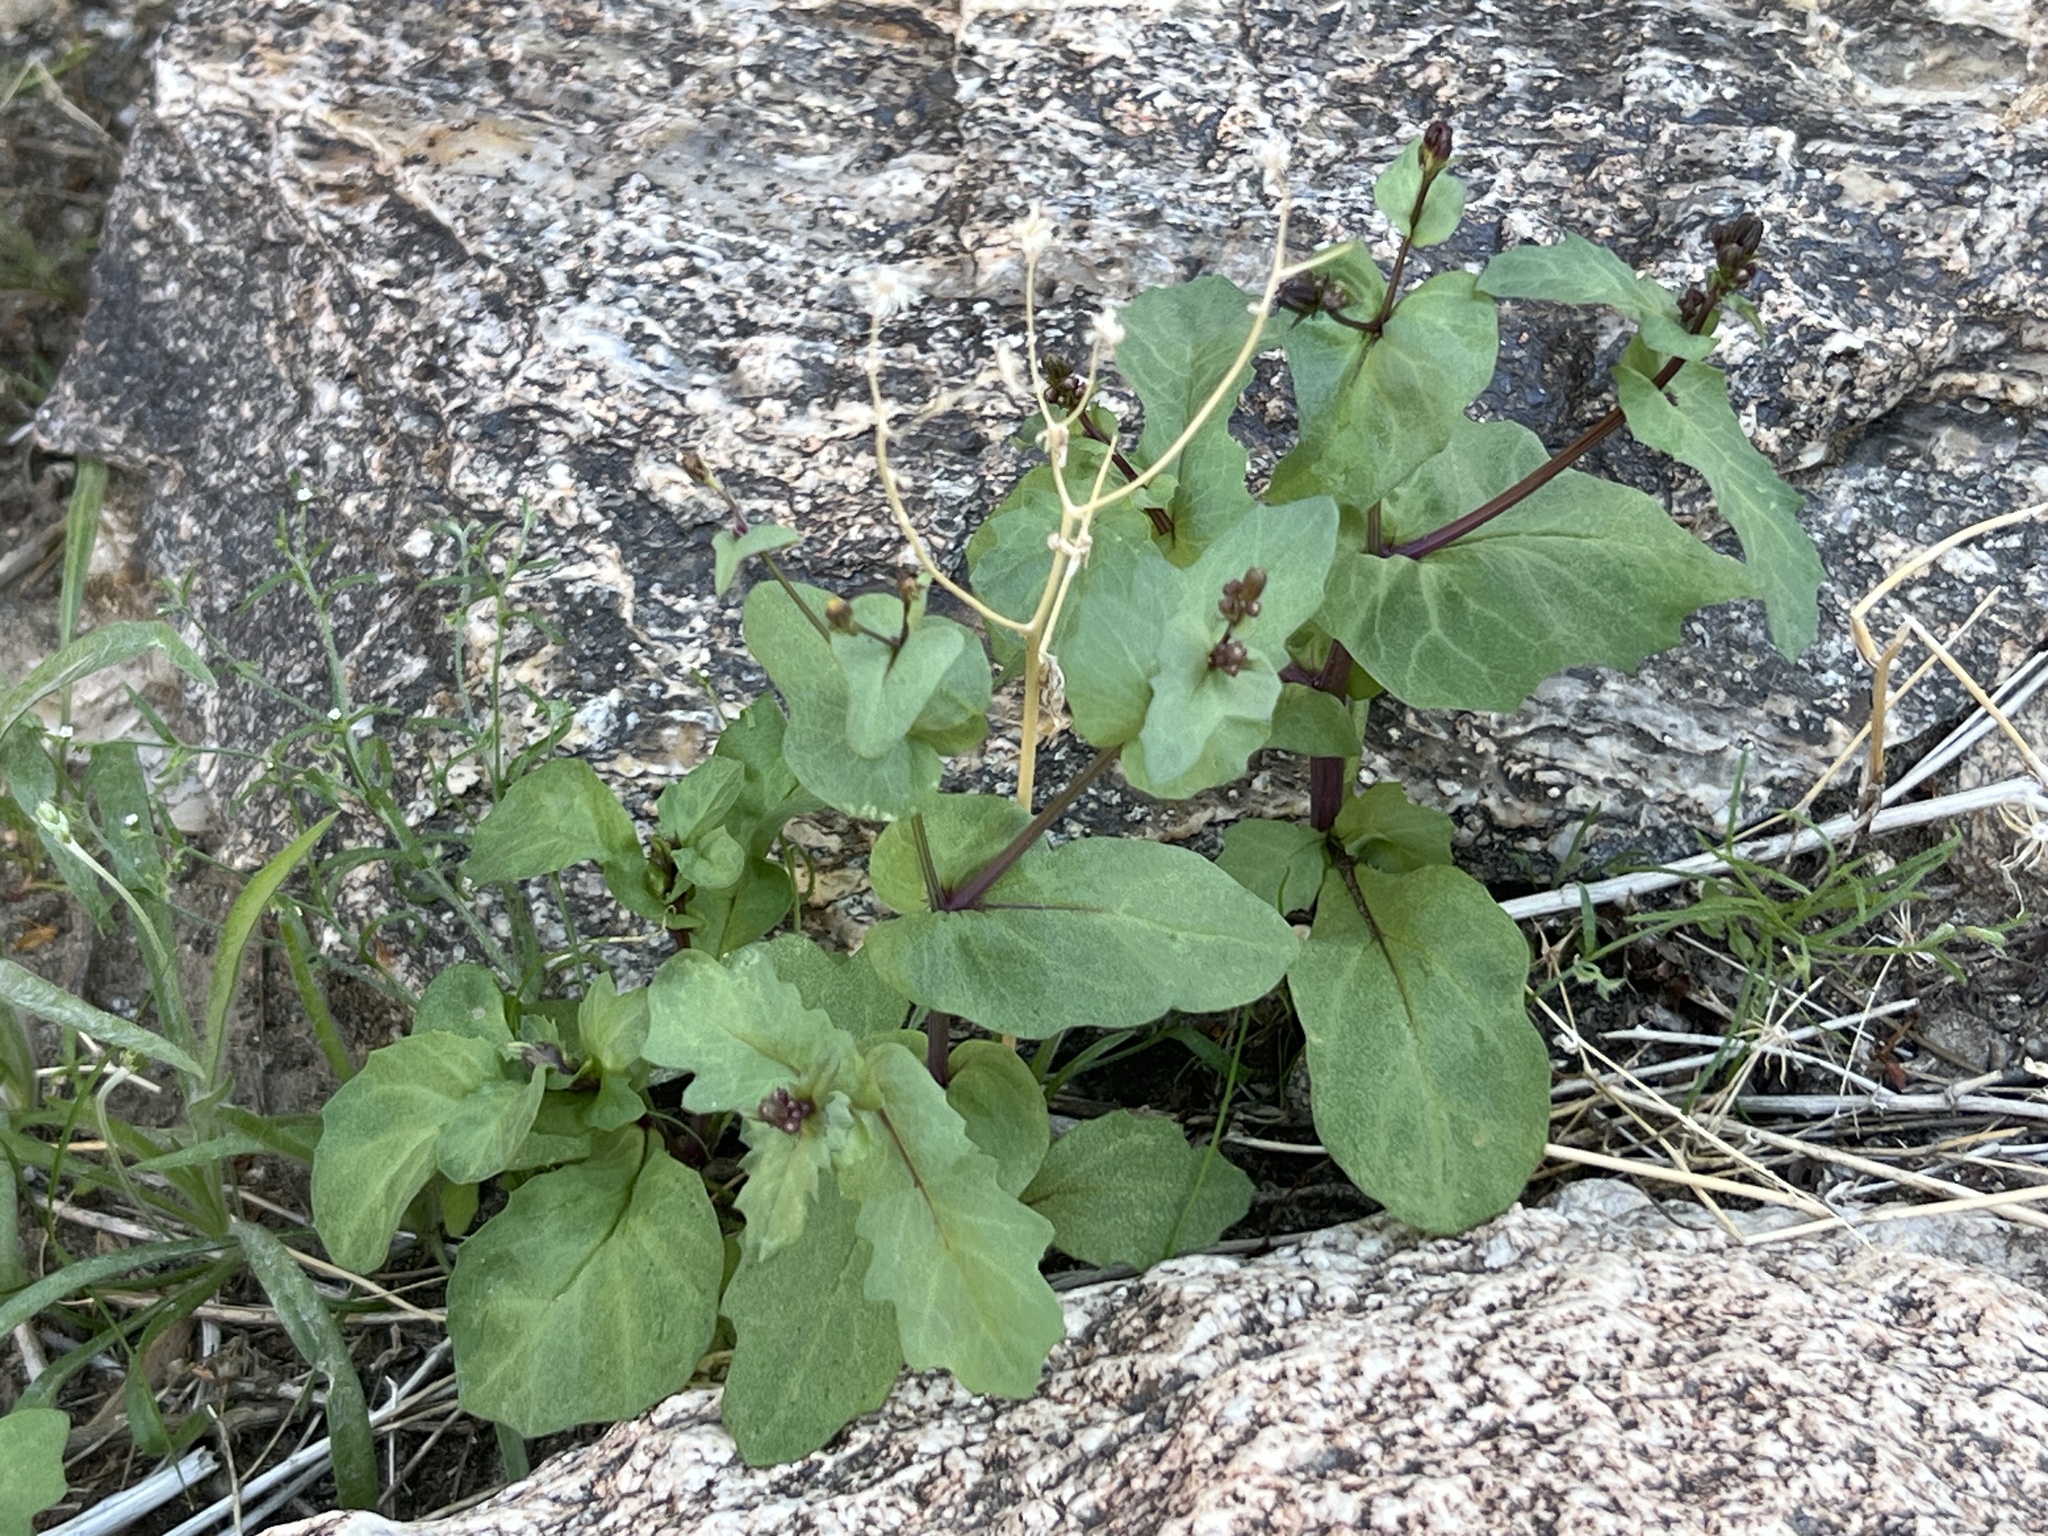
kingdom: Plantae
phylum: Tracheophyta
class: Magnoliopsida
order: Asterales
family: Asteraceae
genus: Senecio
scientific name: Senecio mohavensis
